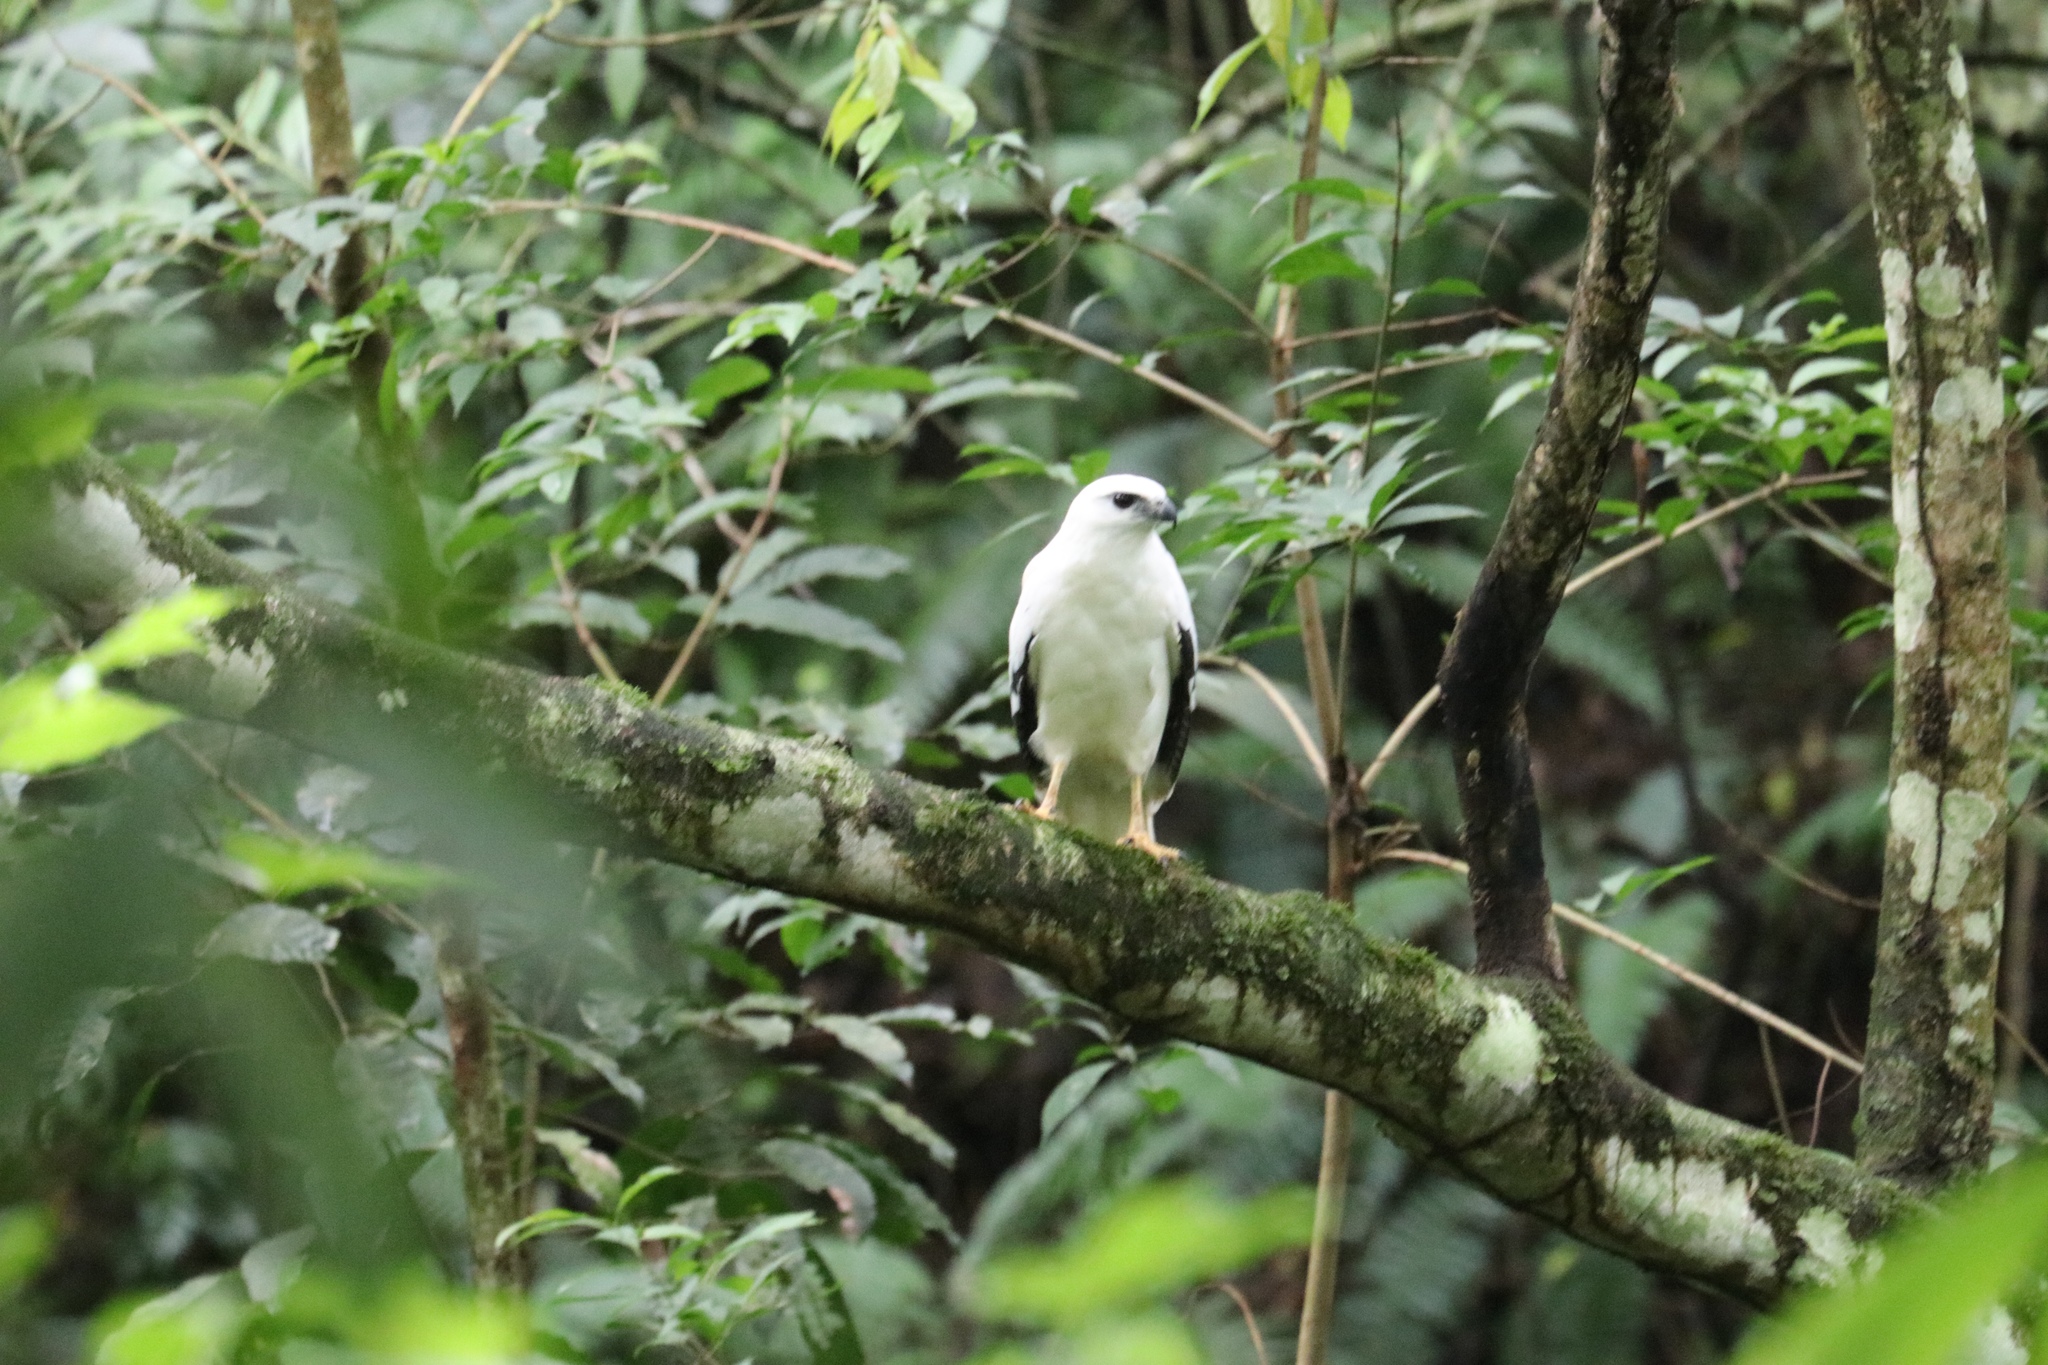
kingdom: Animalia
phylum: Chordata
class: Aves
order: Accipitriformes
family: Accipitridae
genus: Leucopternis
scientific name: Leucopternis albicollis
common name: White hawk
